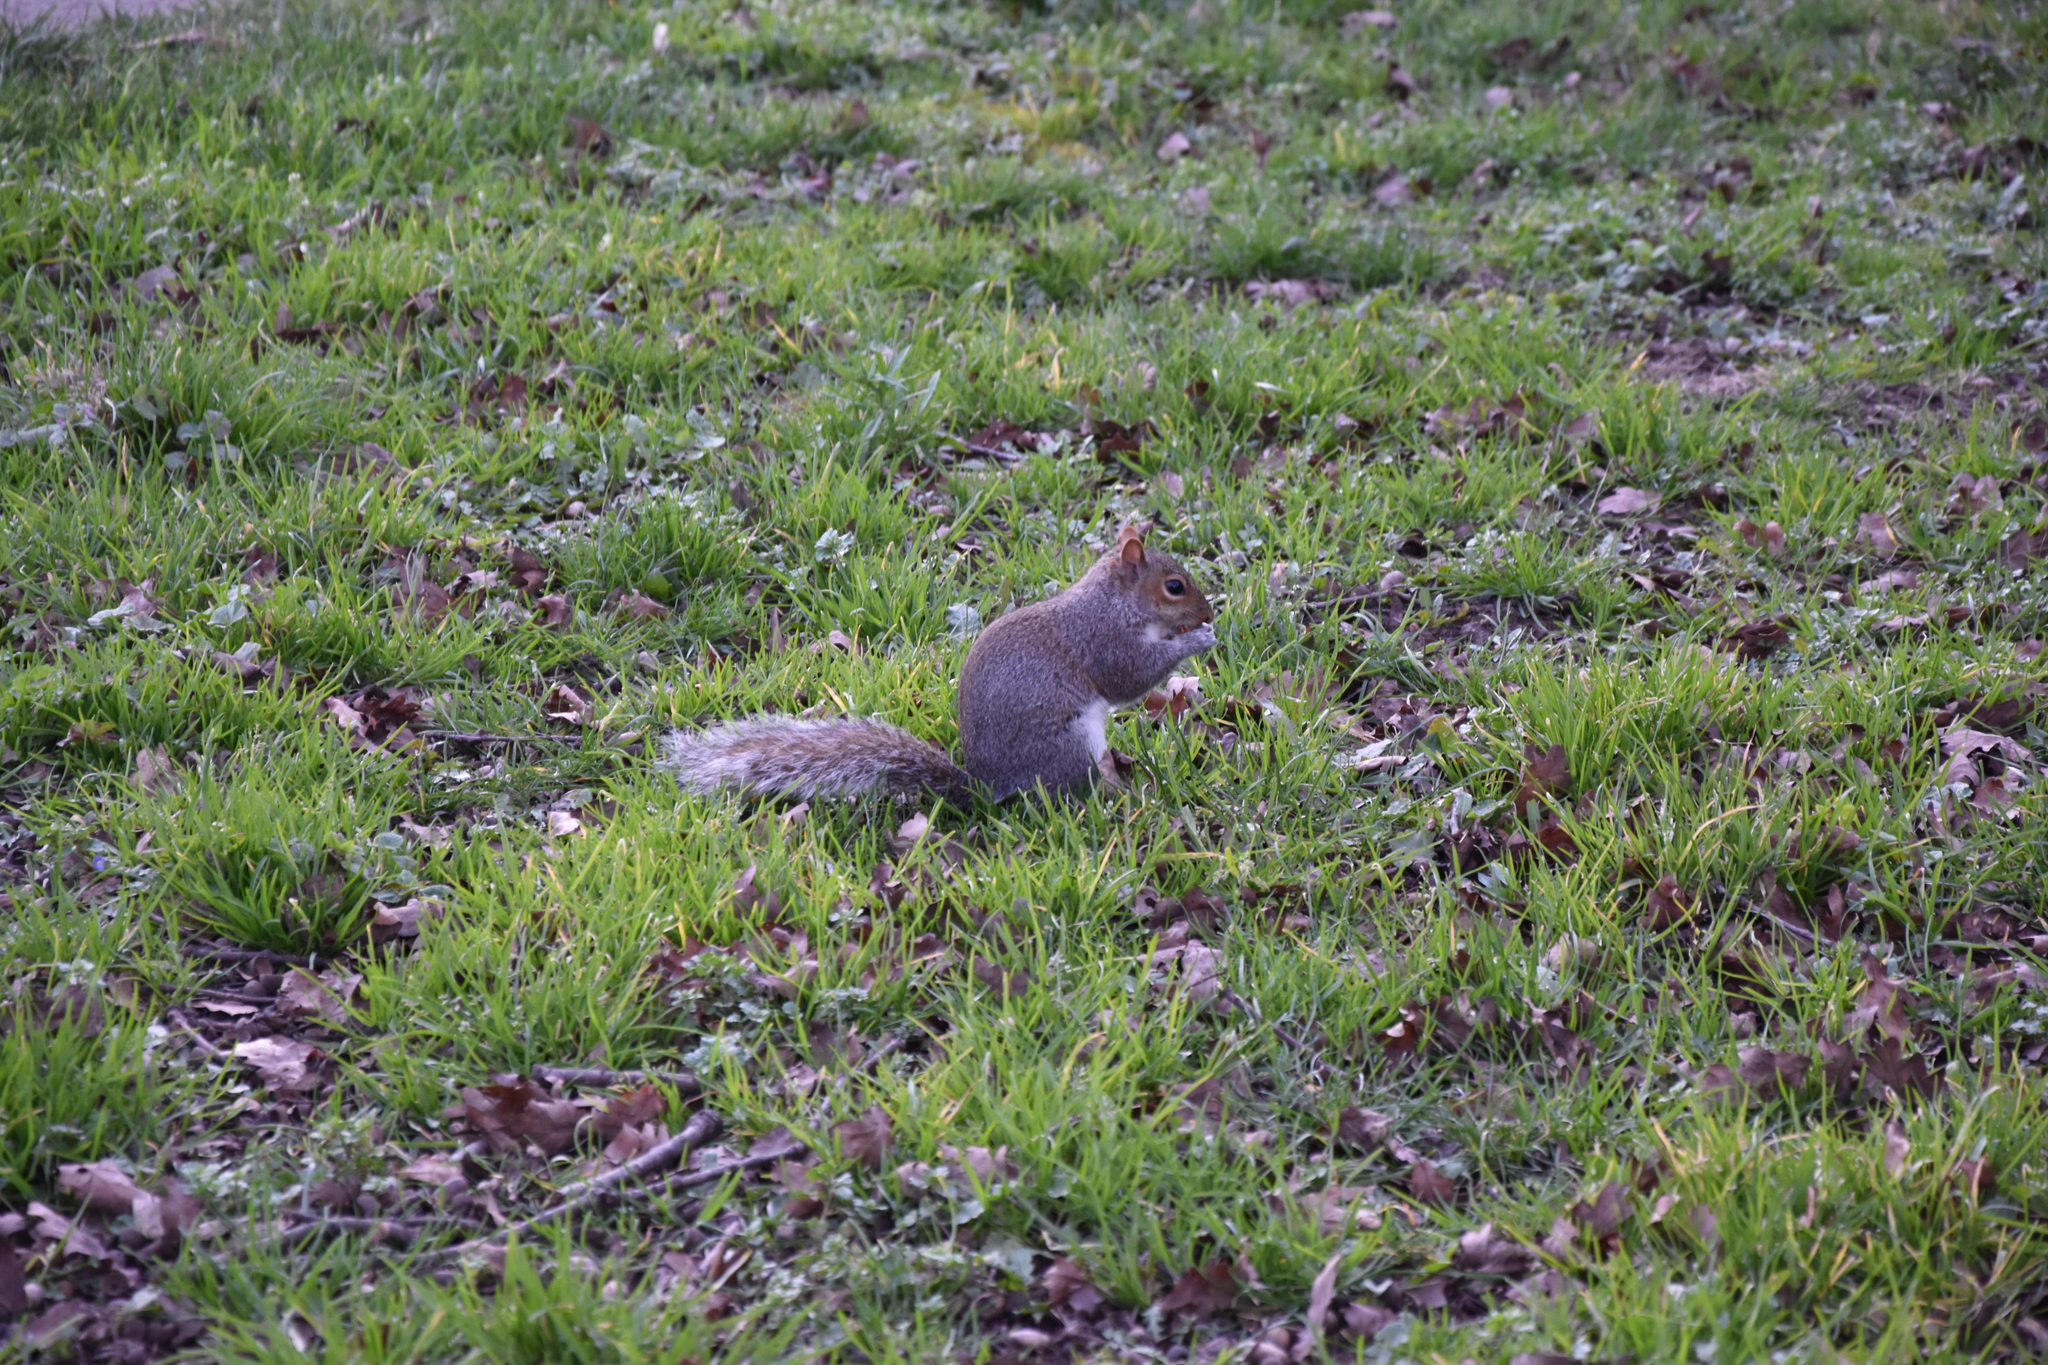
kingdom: Animalia
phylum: Chordata
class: Mammalia
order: Rodentia
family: Sciuridae
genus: Sciurus
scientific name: Sciurus carolinensis
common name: Eastern gray squirrel
